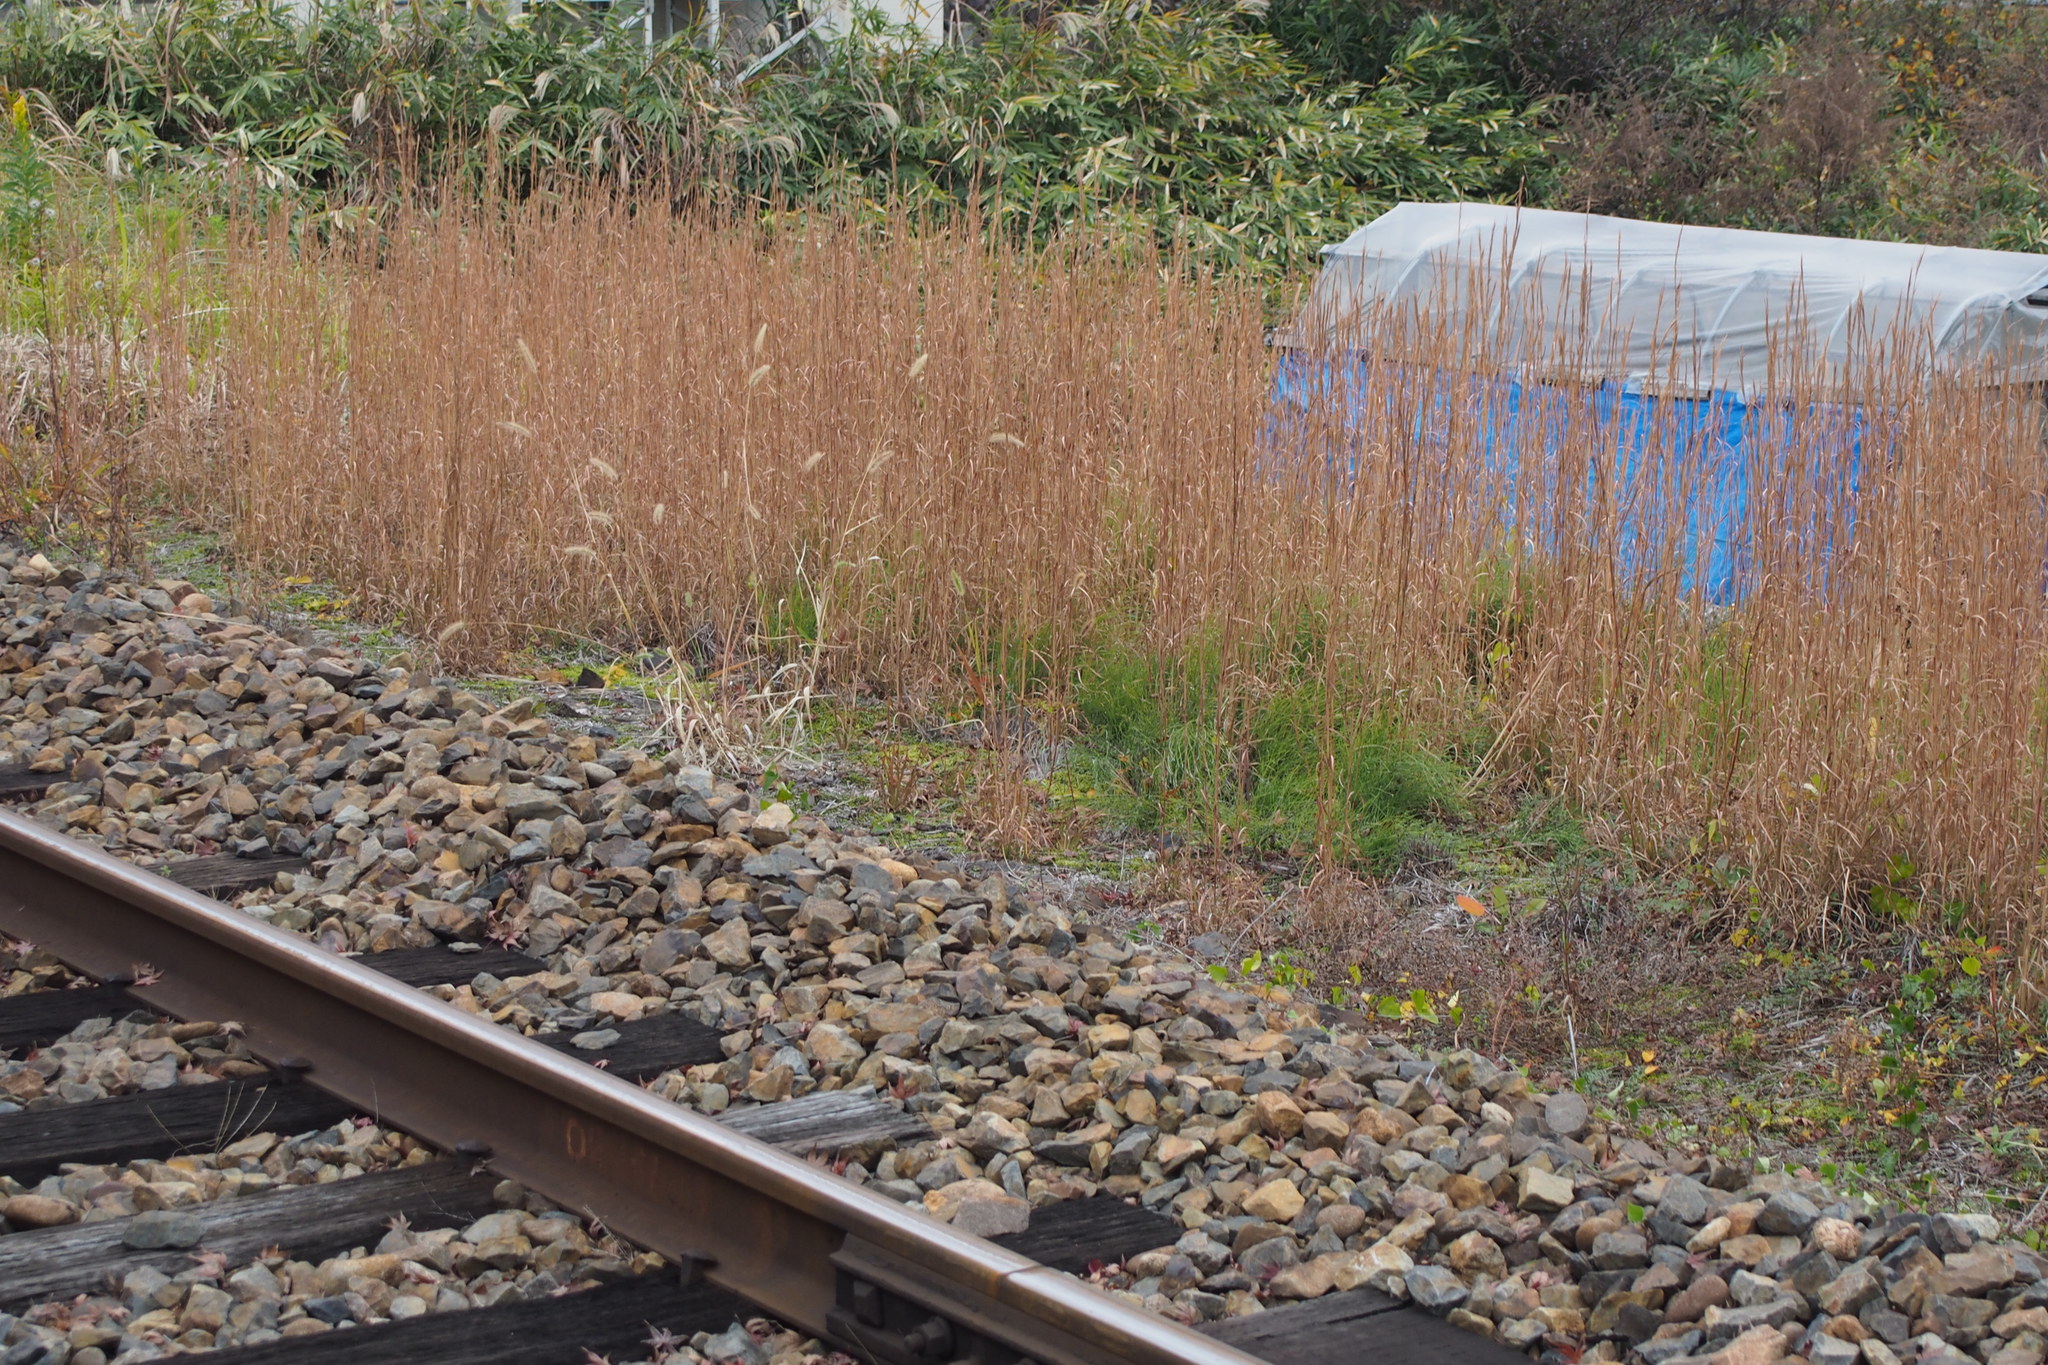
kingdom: Plantae
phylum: Tracheophyta
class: Liliopsida
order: Poales
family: Poaceae
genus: Andropogon
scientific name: Andropogon virginicus
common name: Broomsedge bluestem
